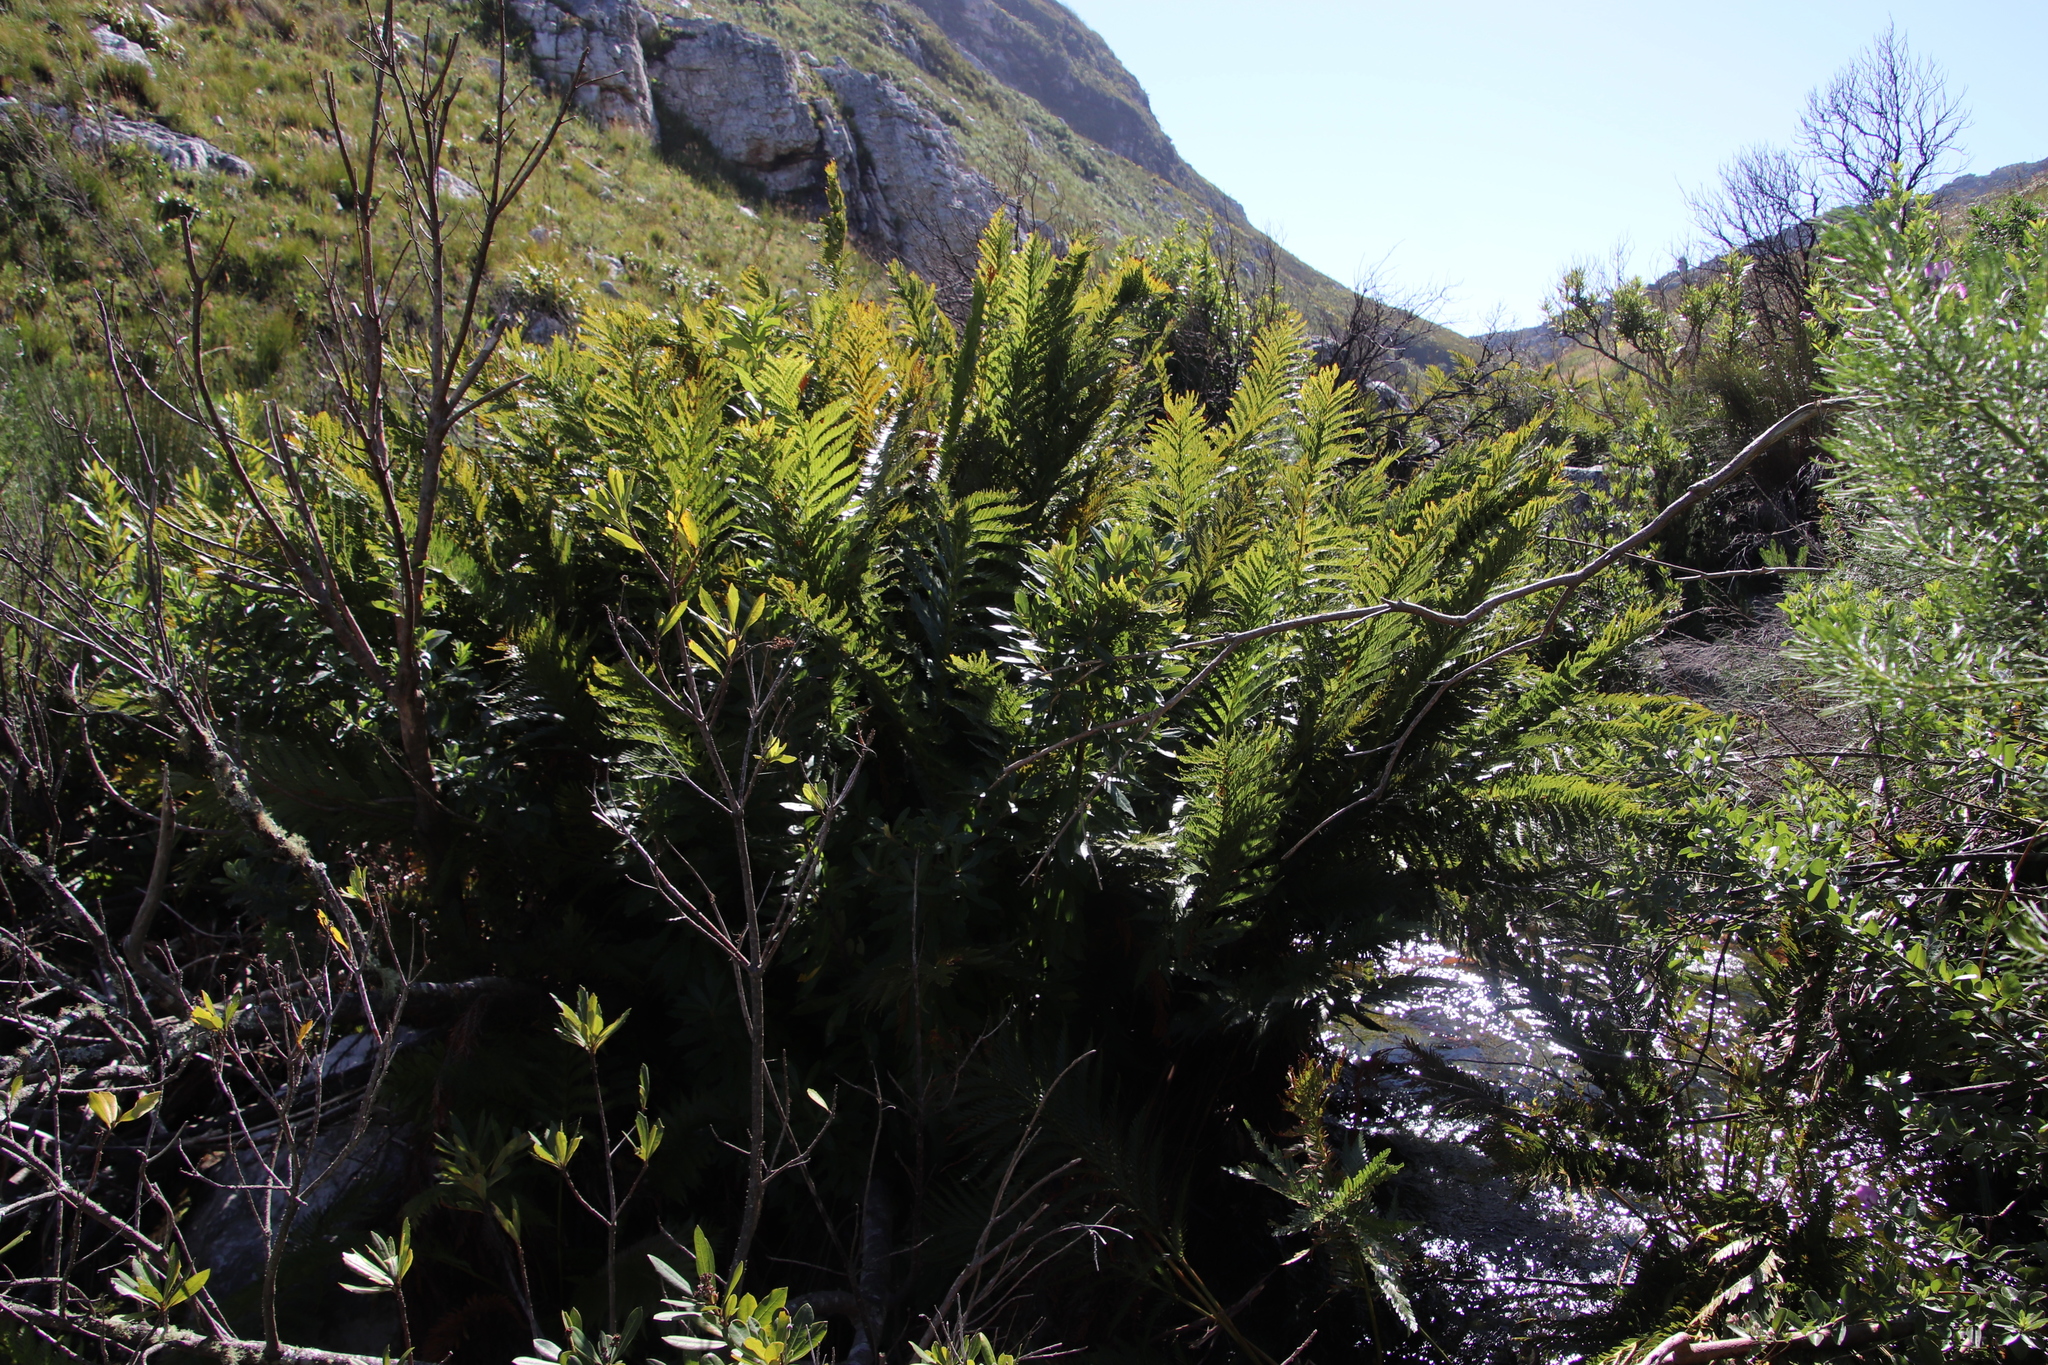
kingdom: Plantae
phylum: Tracheophyta
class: Polypodiopsida
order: Osmundales
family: Osmundaceae
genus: Todea
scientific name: Todea barbara
